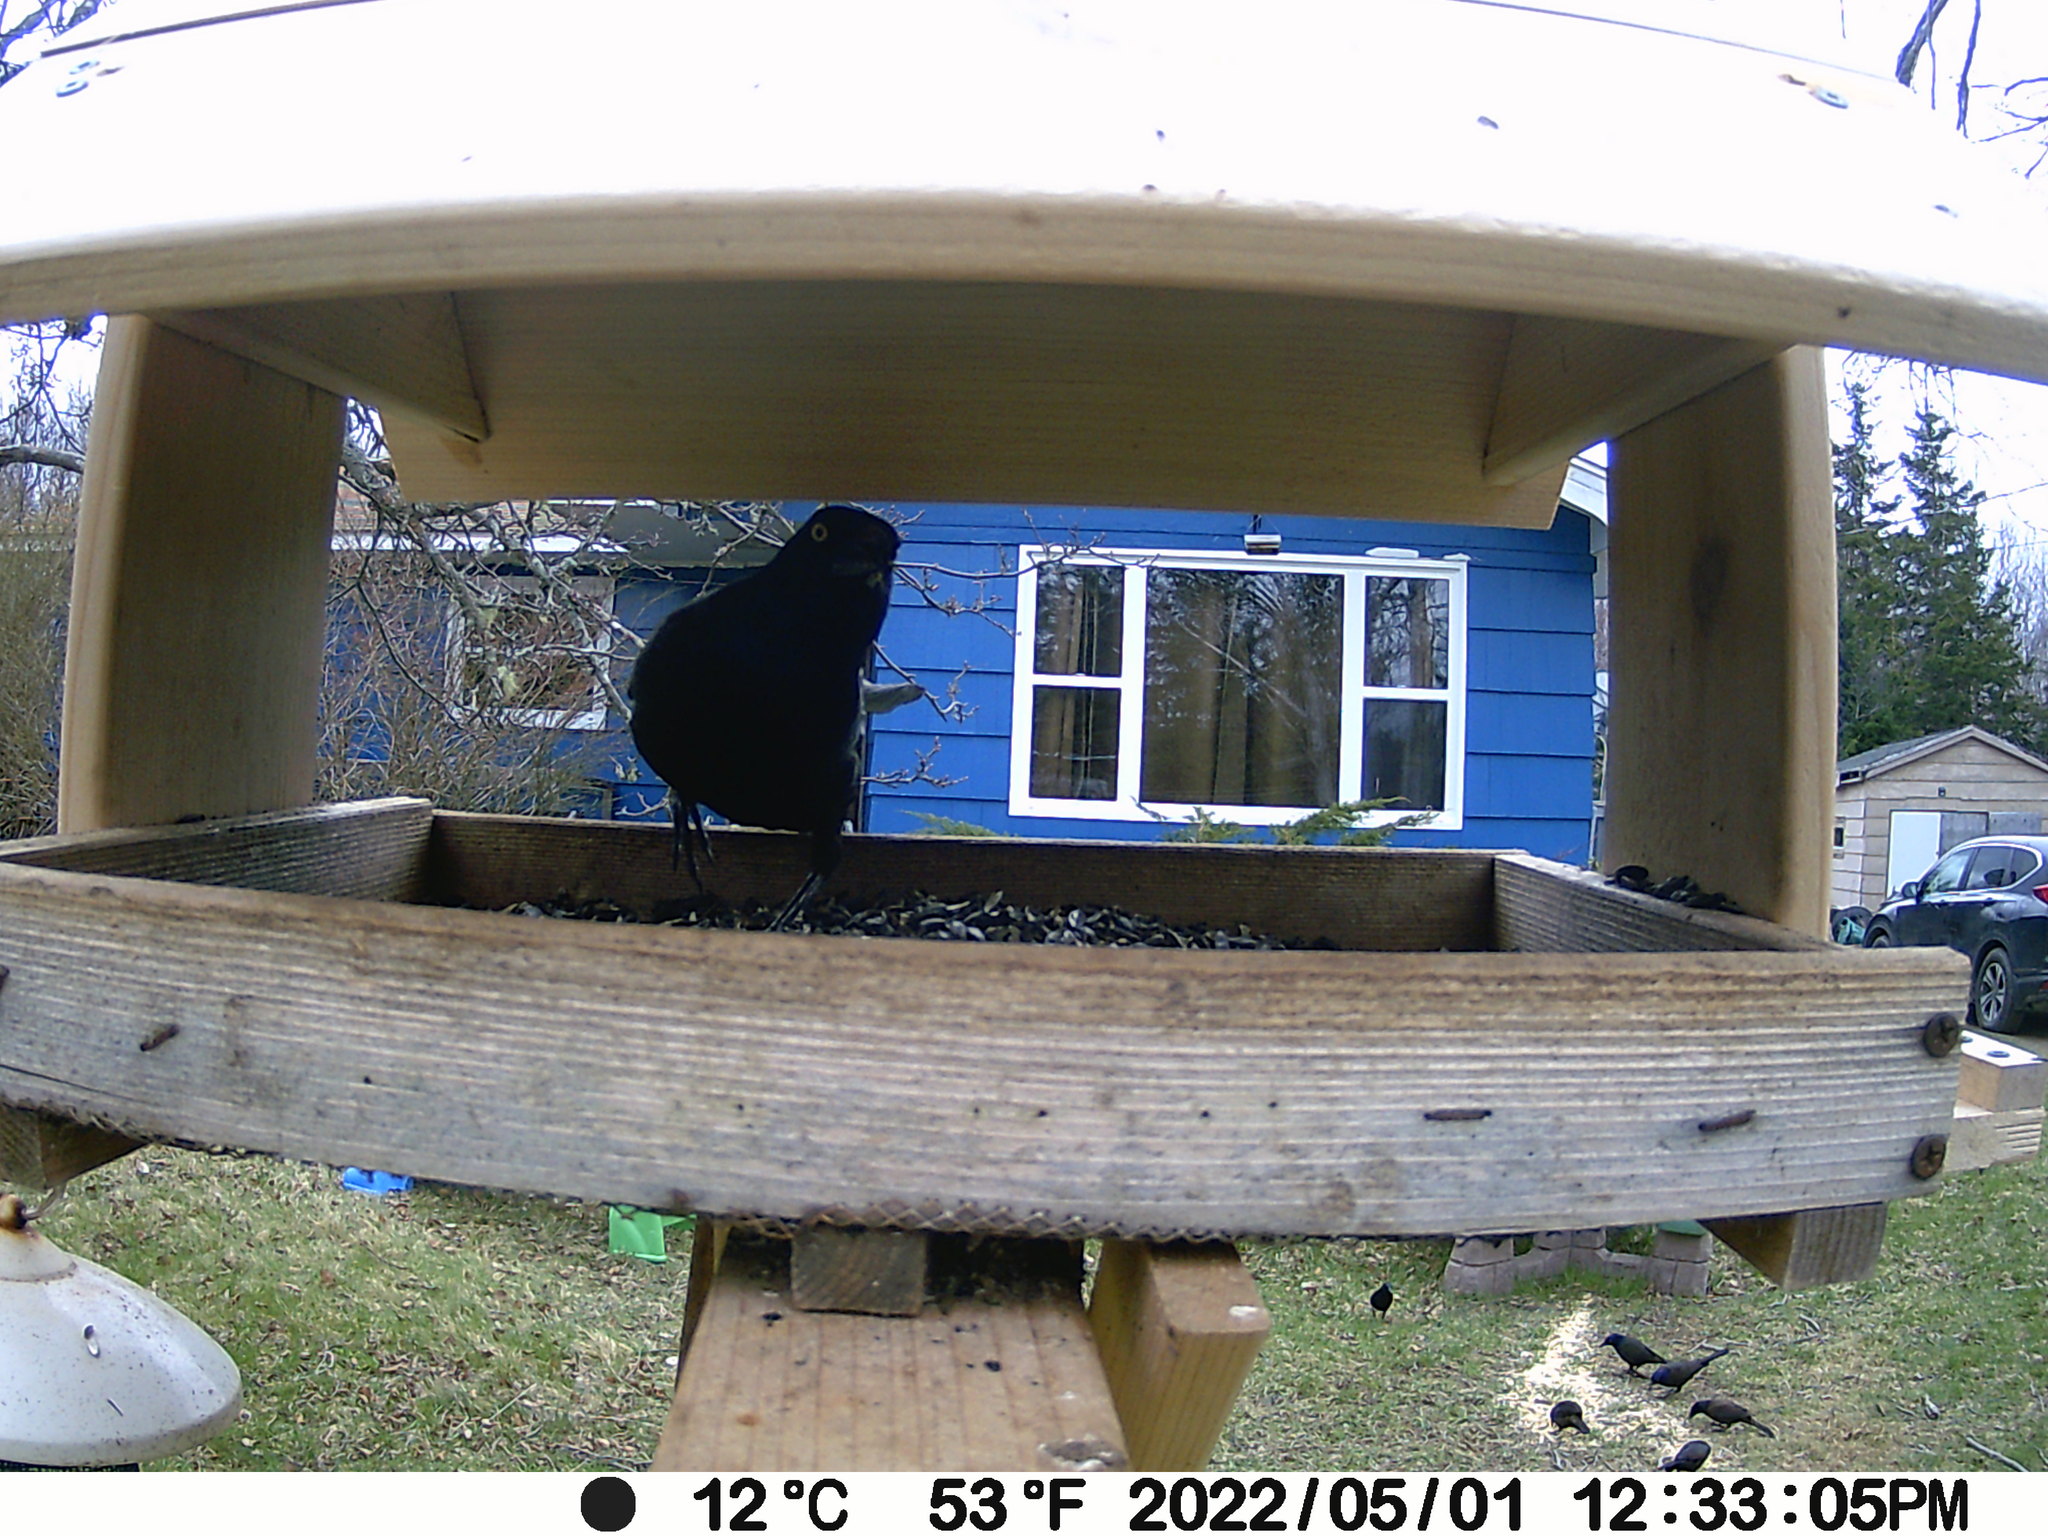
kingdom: Animalia
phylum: Chordata
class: Aves
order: Passeriformes
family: Icteridae
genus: Quiscalus
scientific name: Quiscalus quiscula
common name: Common grackle
